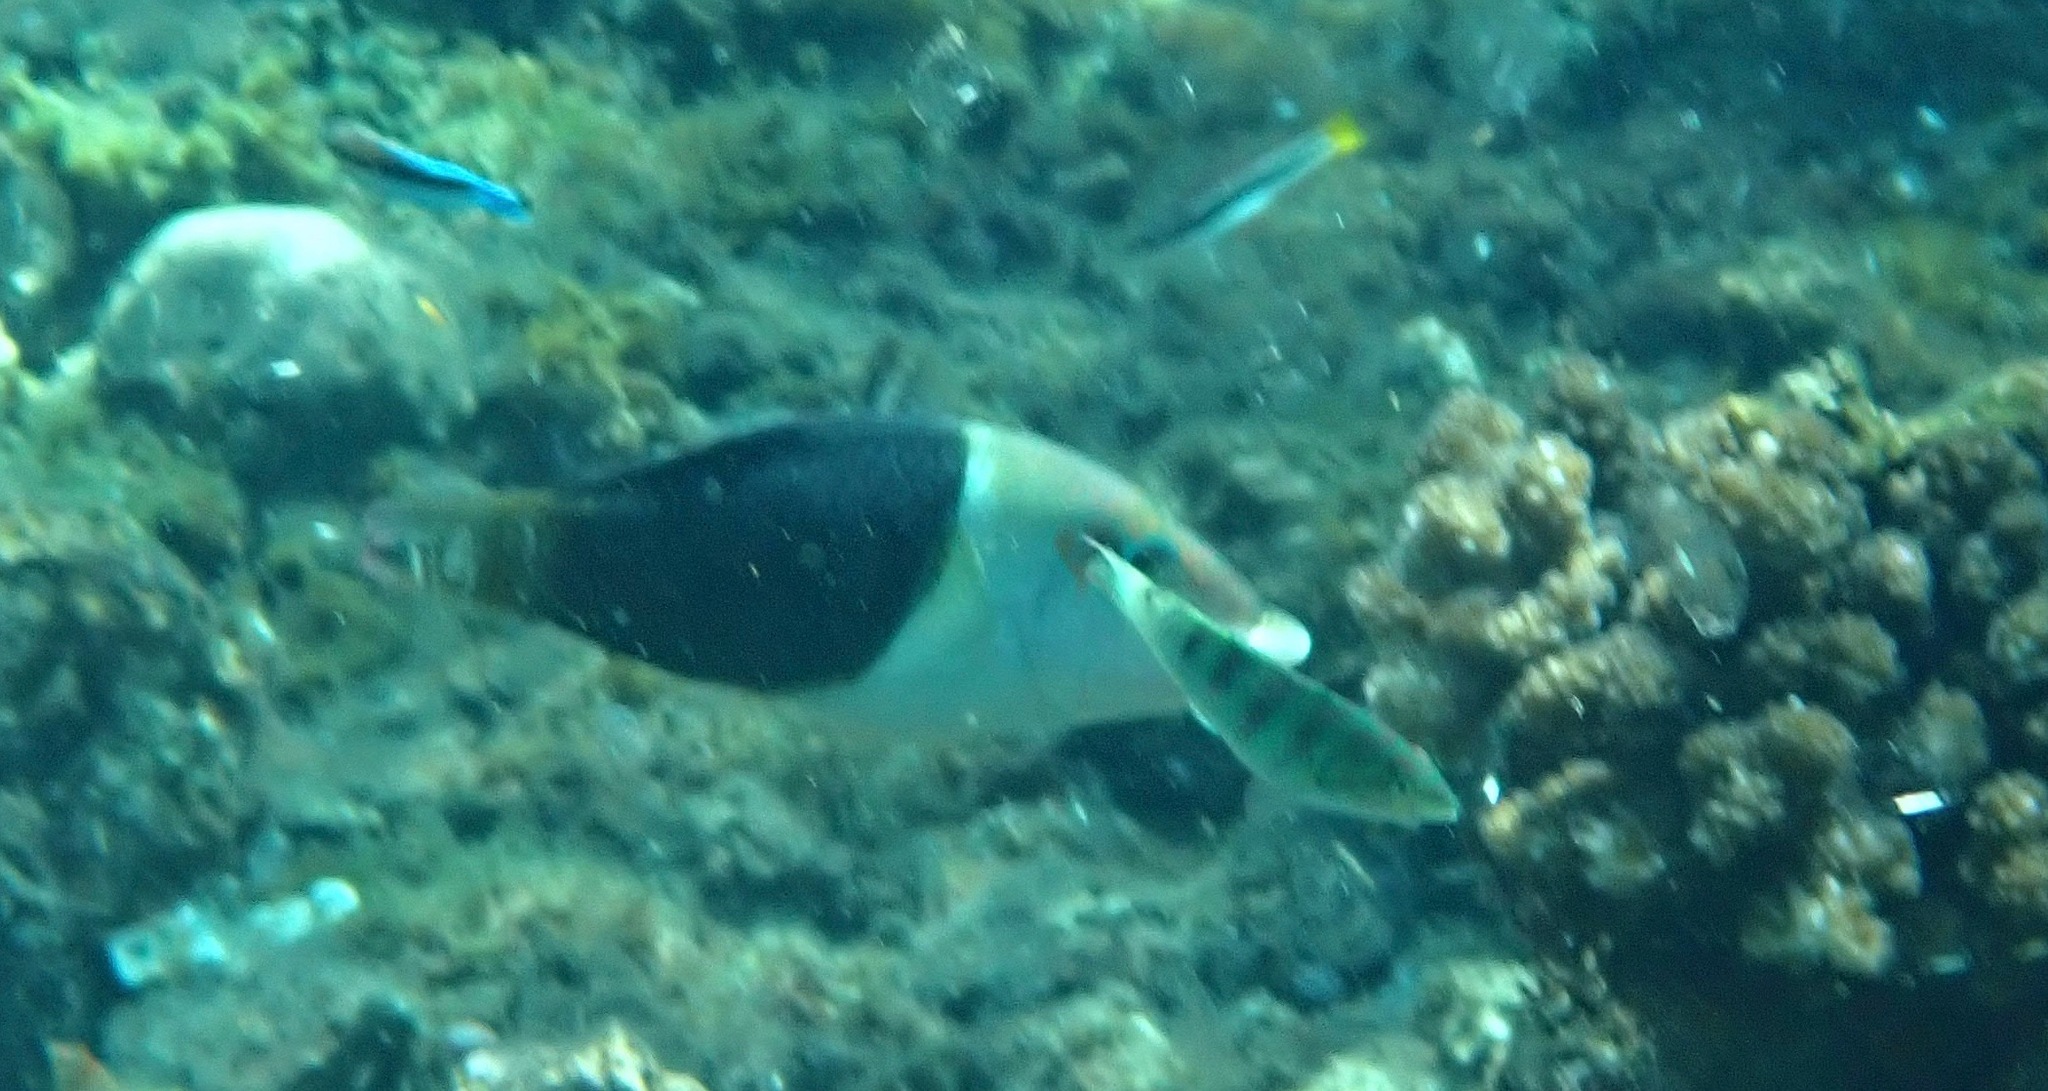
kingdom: Animalia
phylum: Chordata
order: Perciformes
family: Labridae
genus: Hemigymnus
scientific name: Hemigymnus melapterus
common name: Blackeye thicklip
